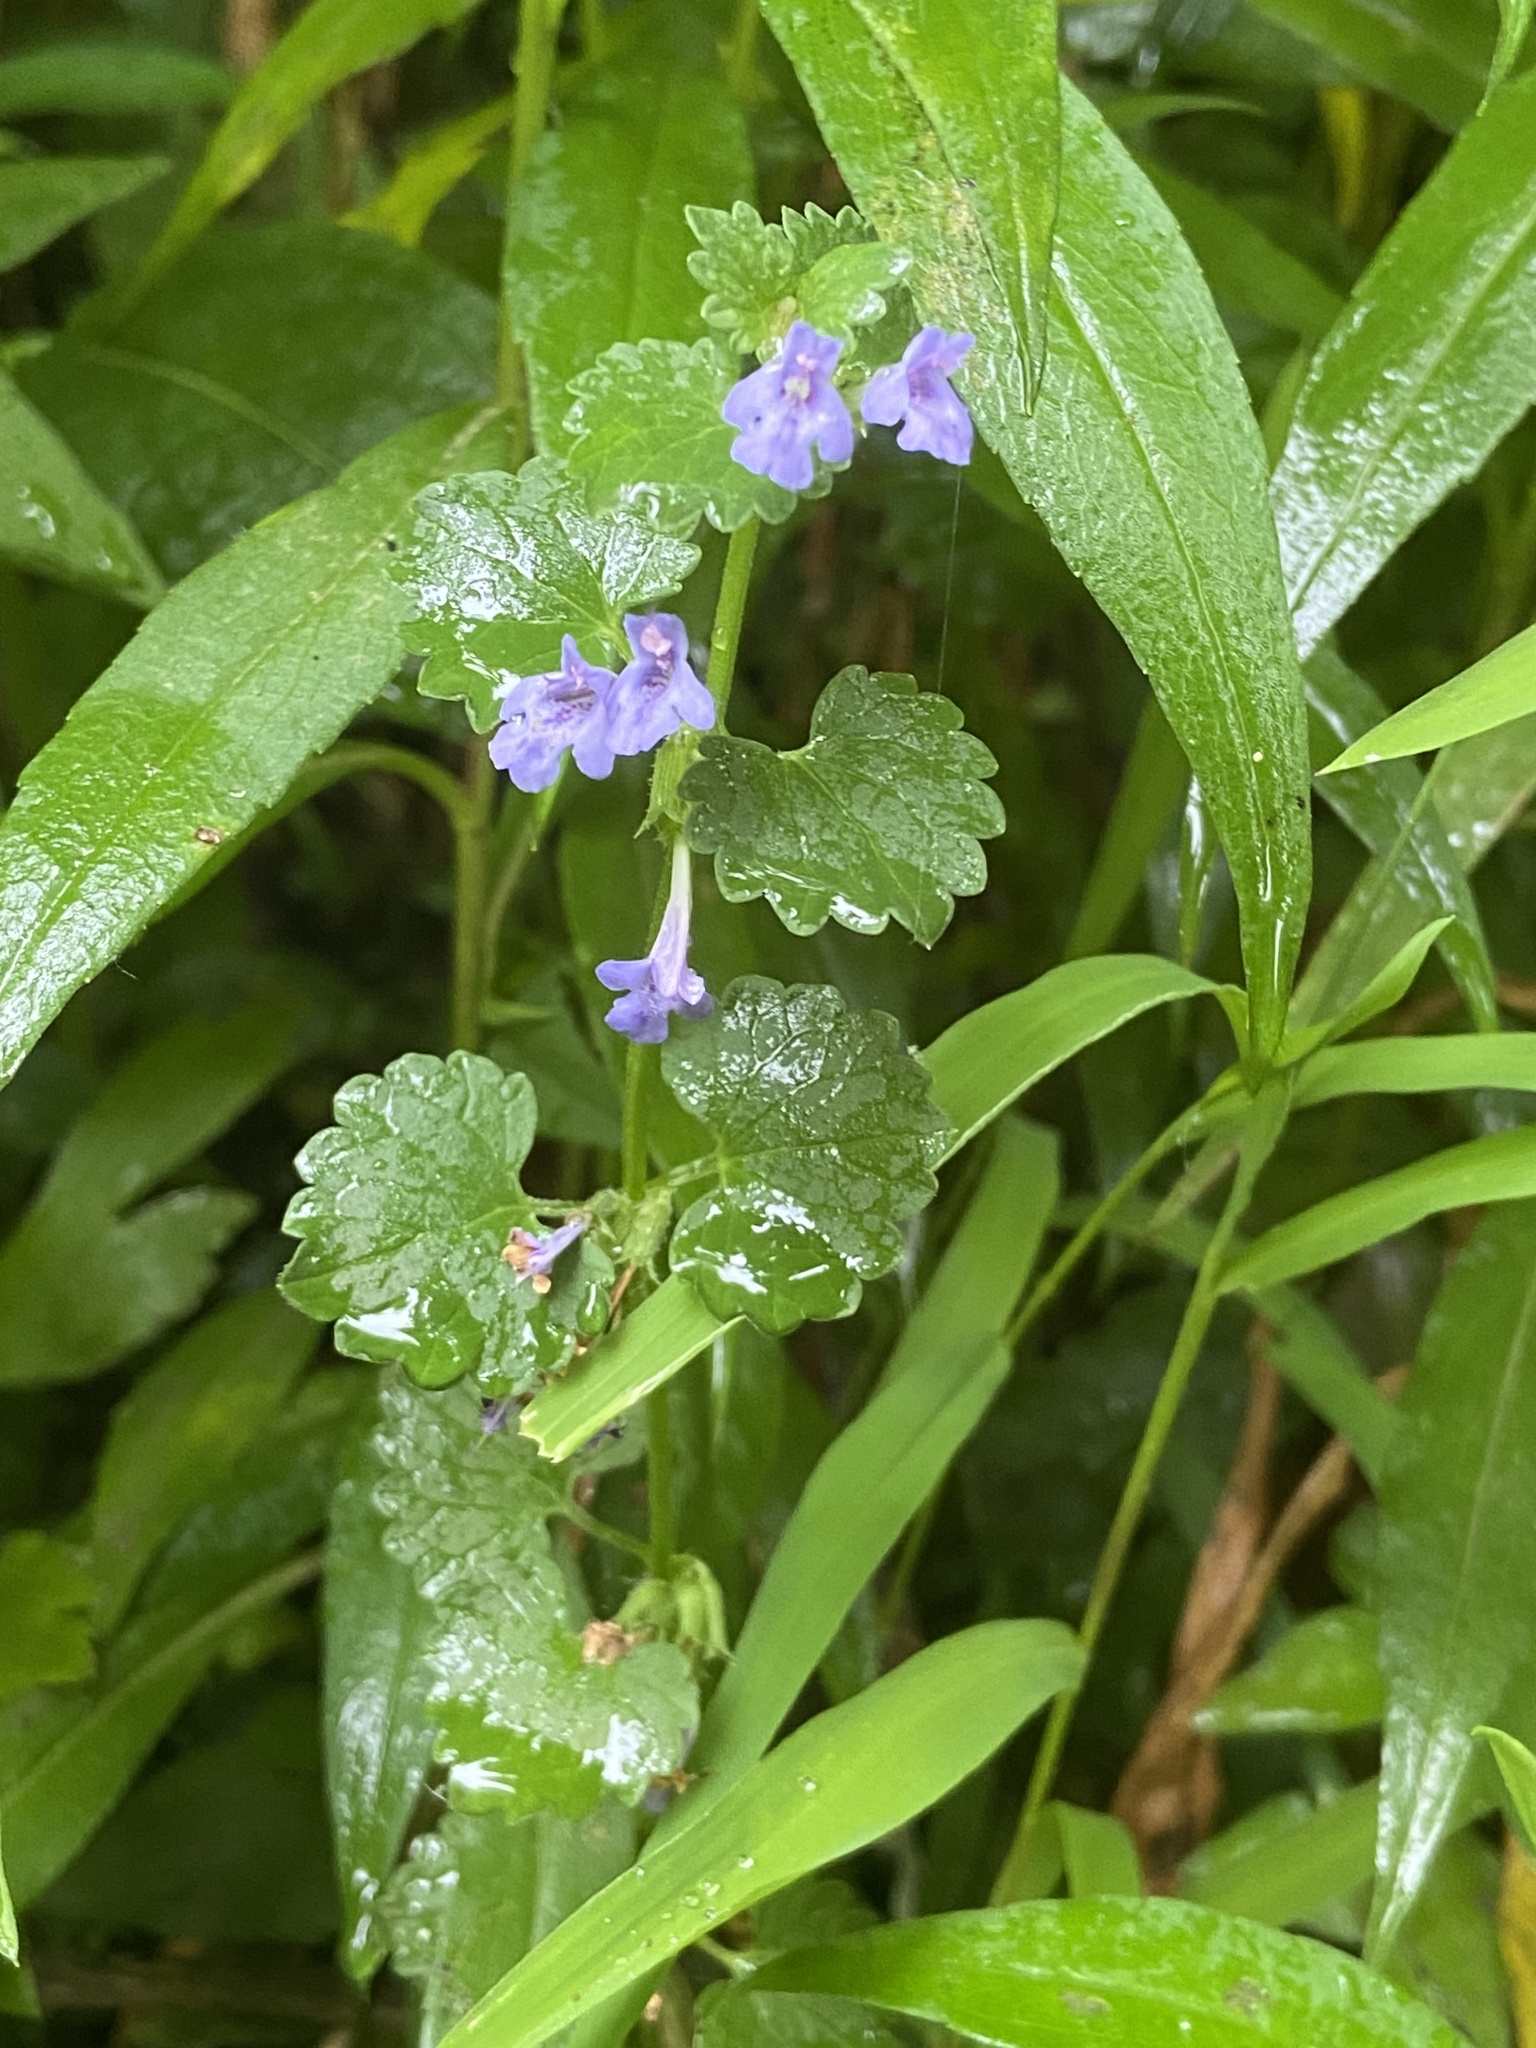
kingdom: Plantae
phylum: Tracheophyta
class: Magnoliopsida
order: Lamiales
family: Lamiaceae
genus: Glechoma
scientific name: Glechoma hederacea
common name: Ground ivy
